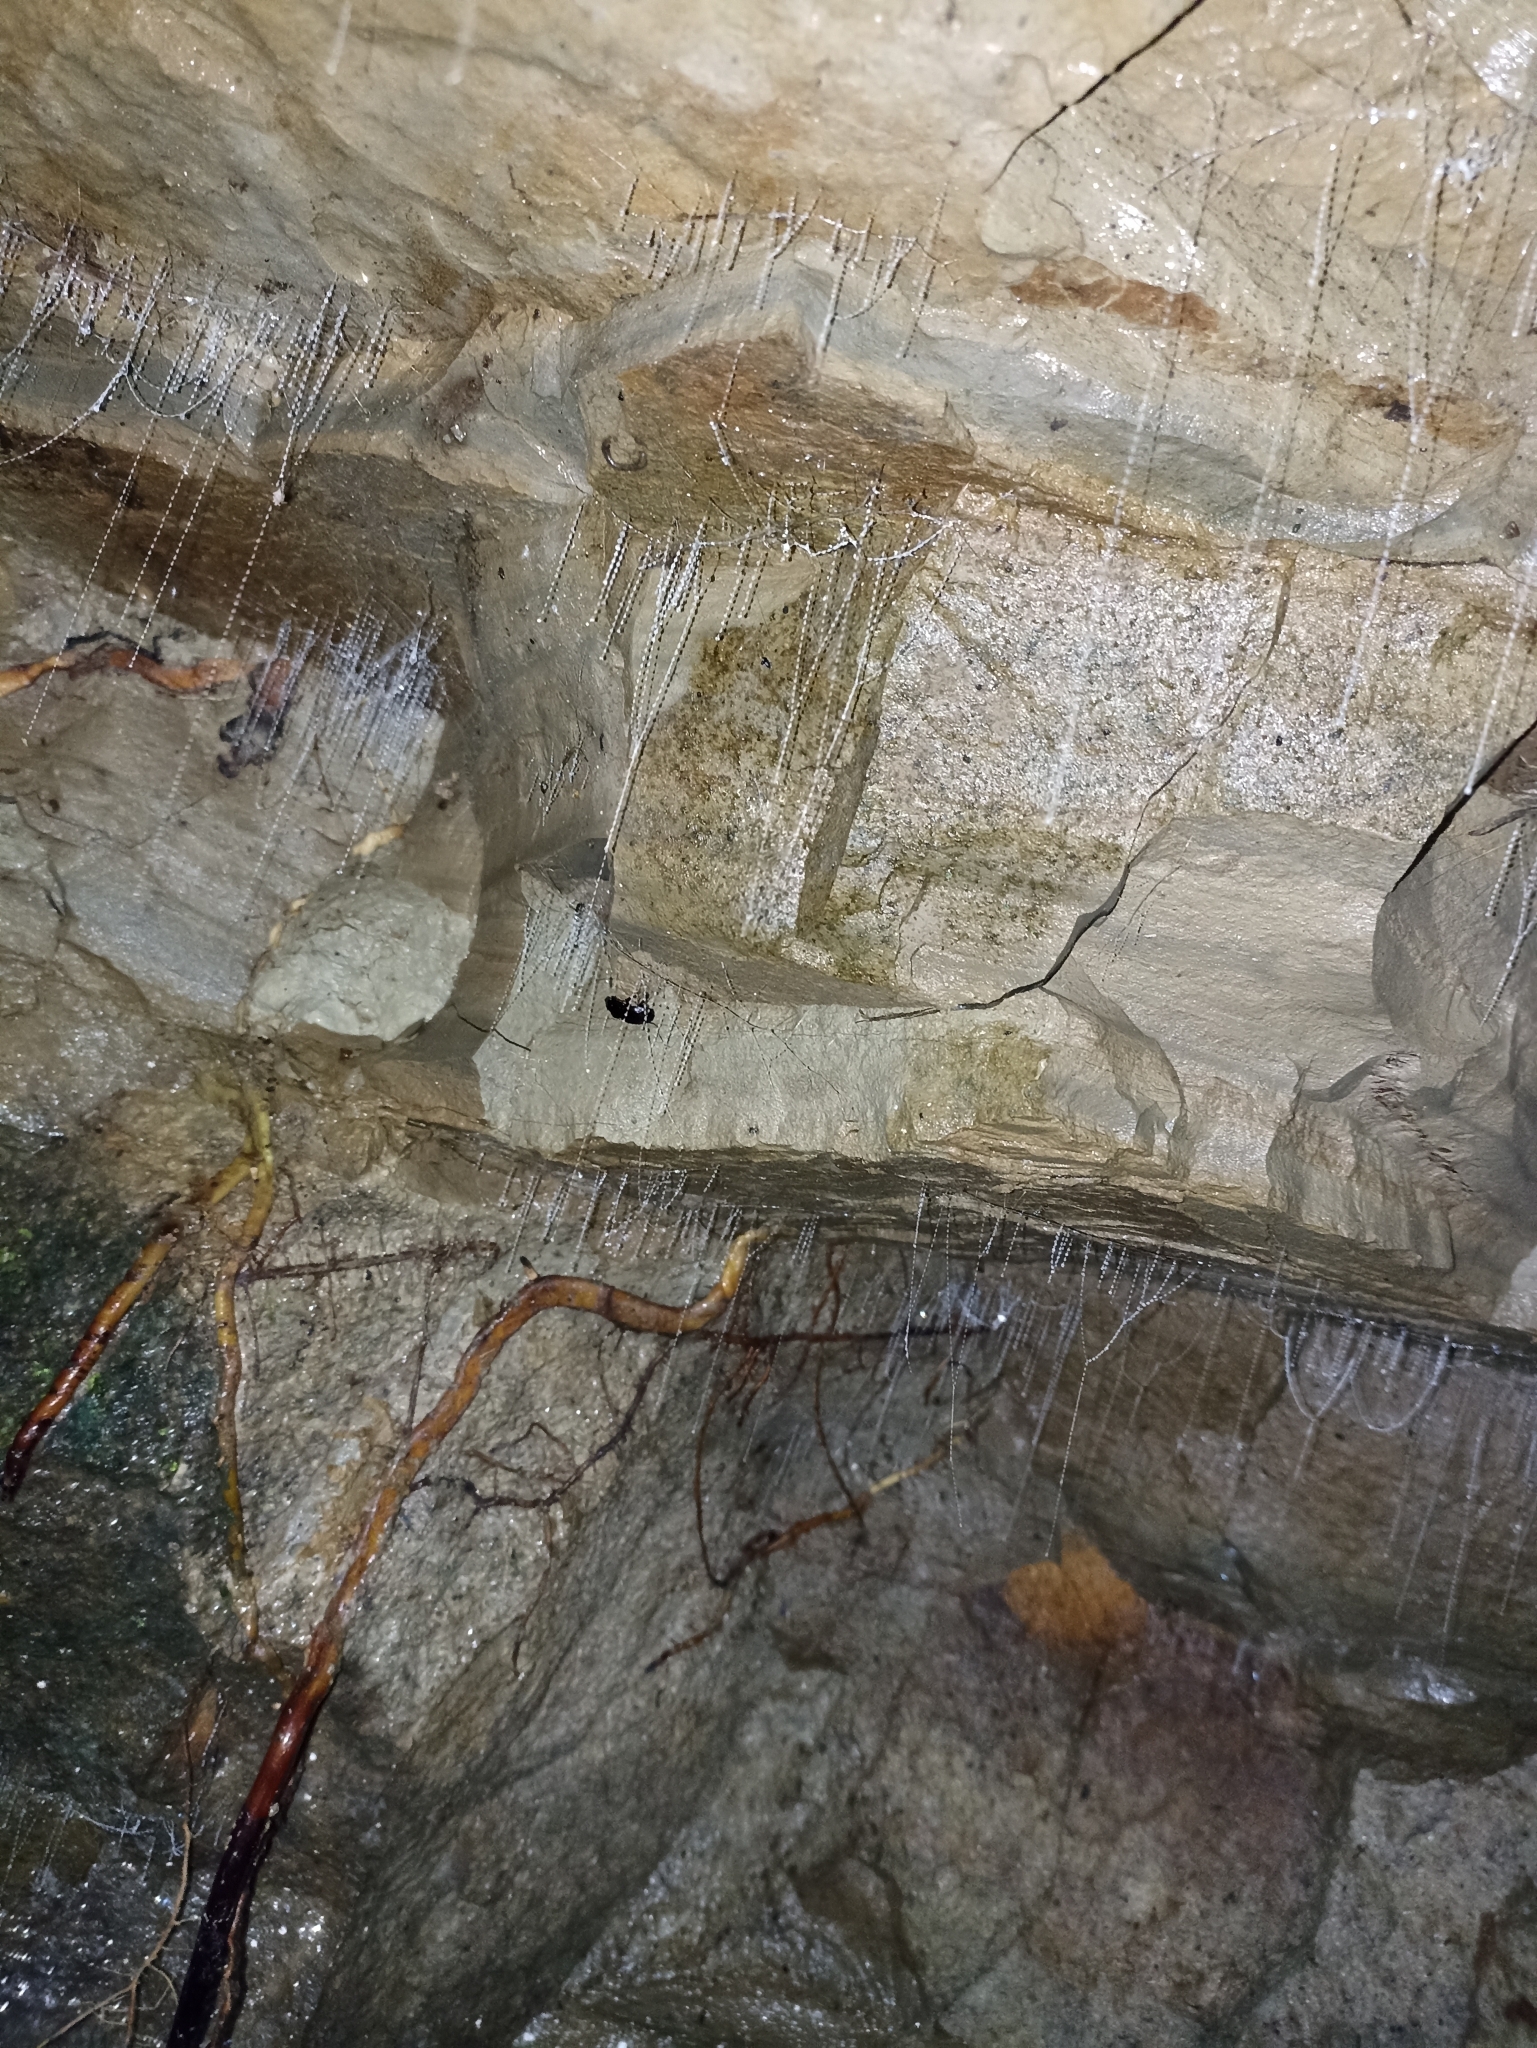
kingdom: Animalia
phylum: Arthropoda
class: Insecta
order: Diptera
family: Keroplatidae
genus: Arachnocampa
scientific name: Arachnocampa luminosa
